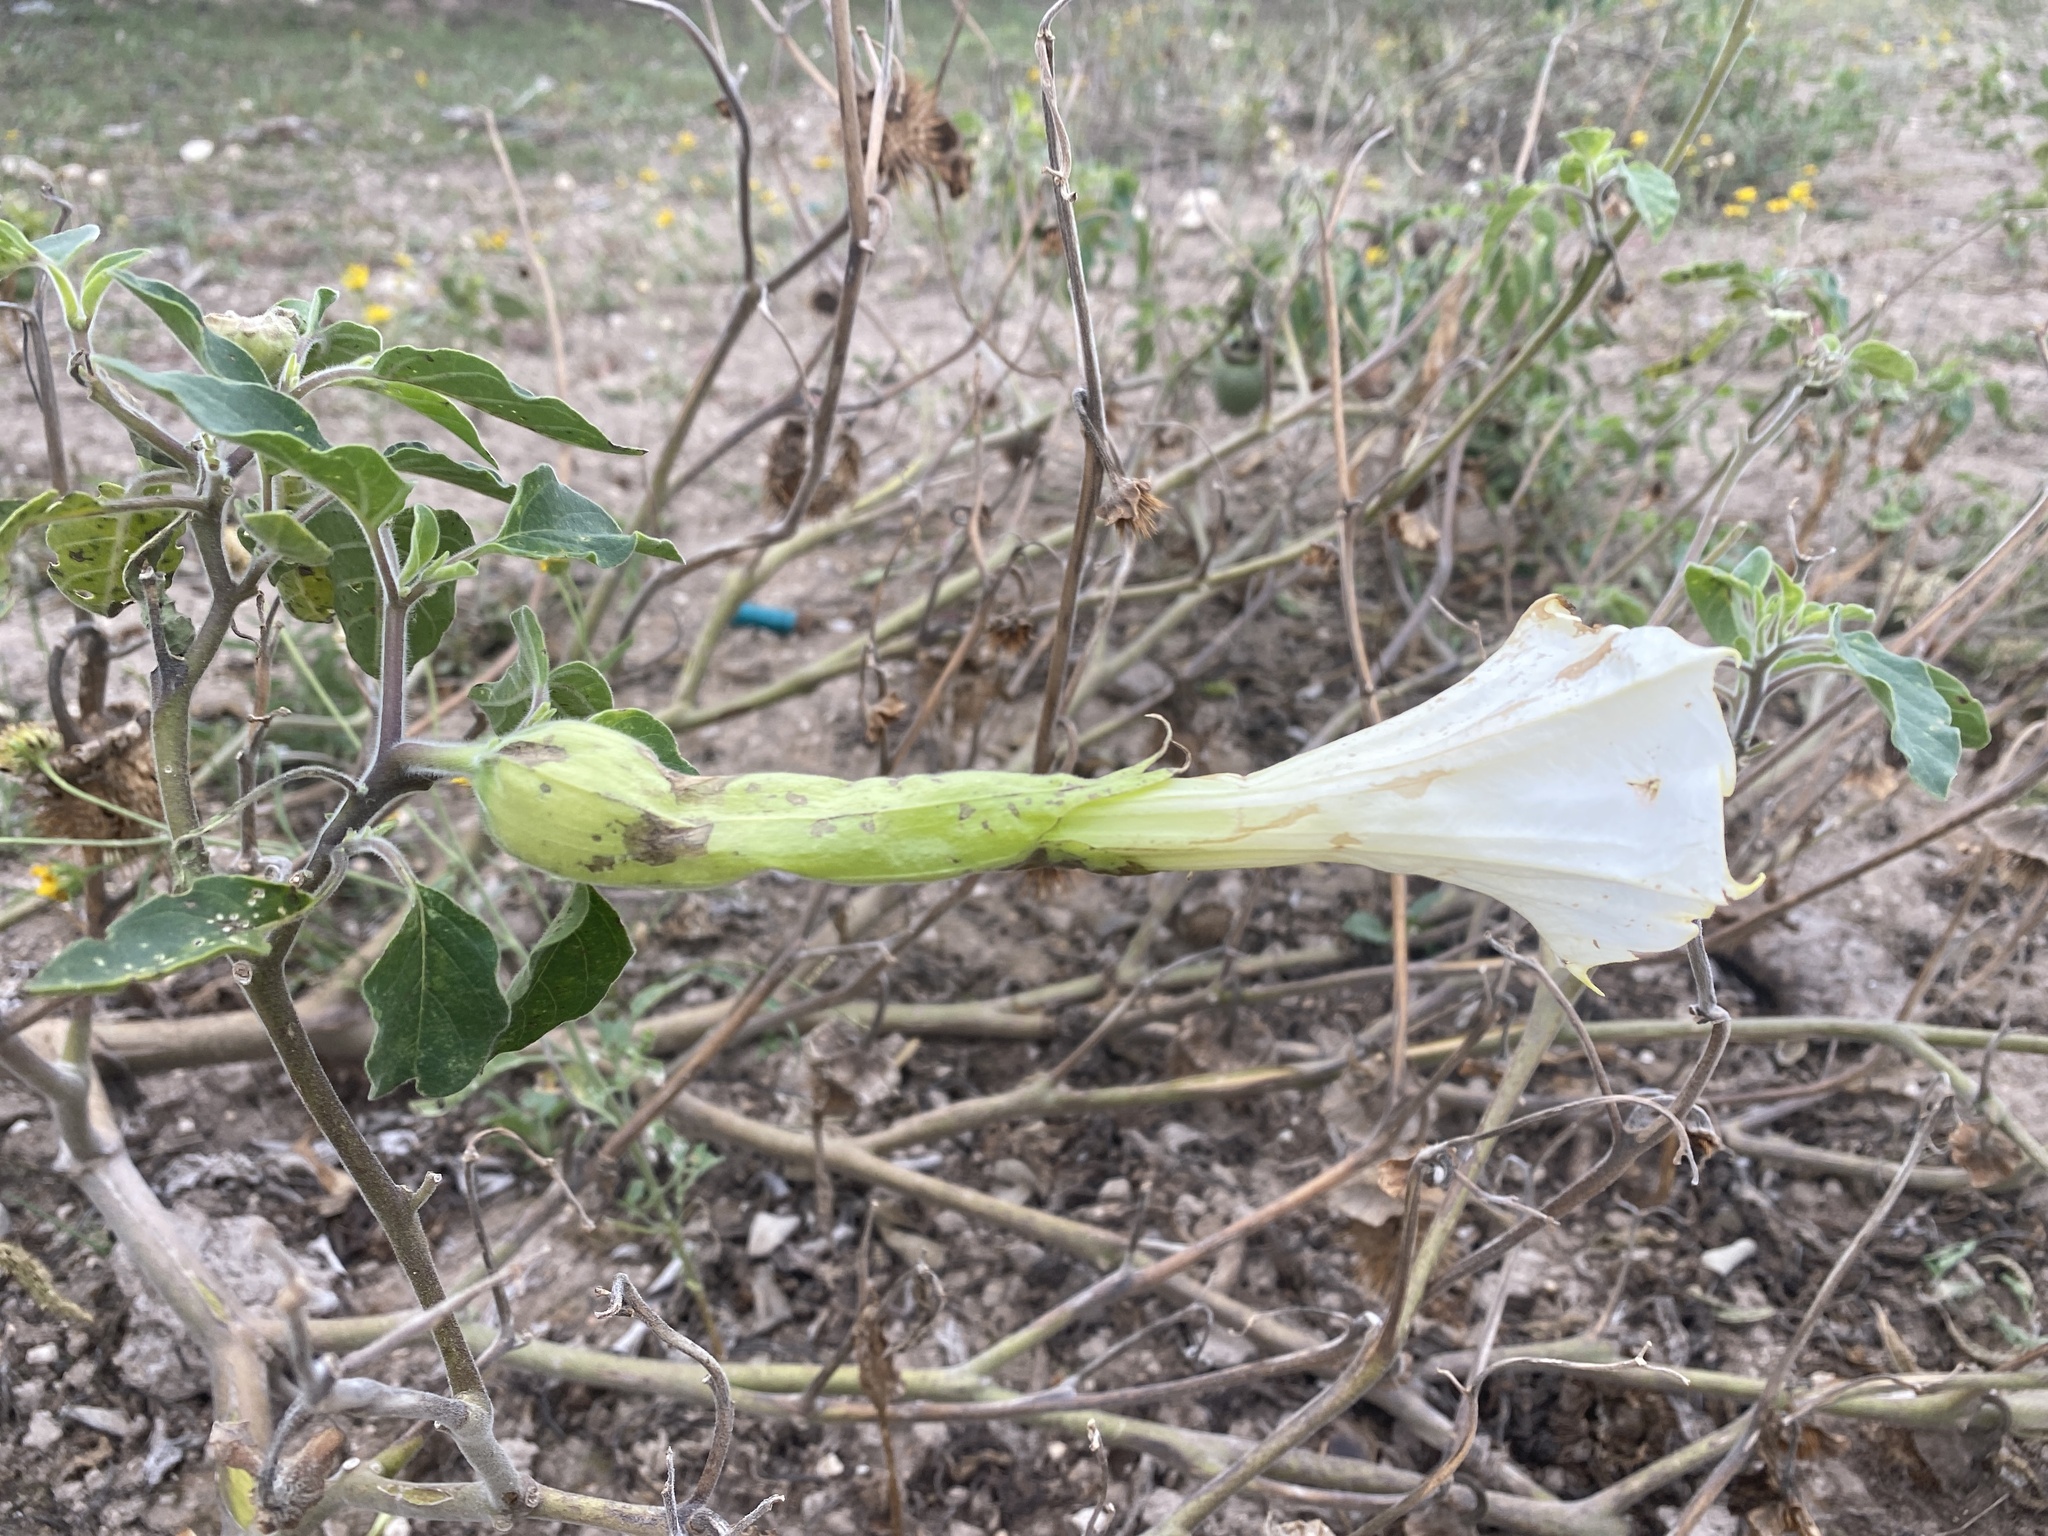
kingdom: Plantae
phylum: Tracheophyta
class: Magnoliopsida
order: Solanales
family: Solanaceae
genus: Datura
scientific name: Datura wrightii
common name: Sacred thorn-apple
